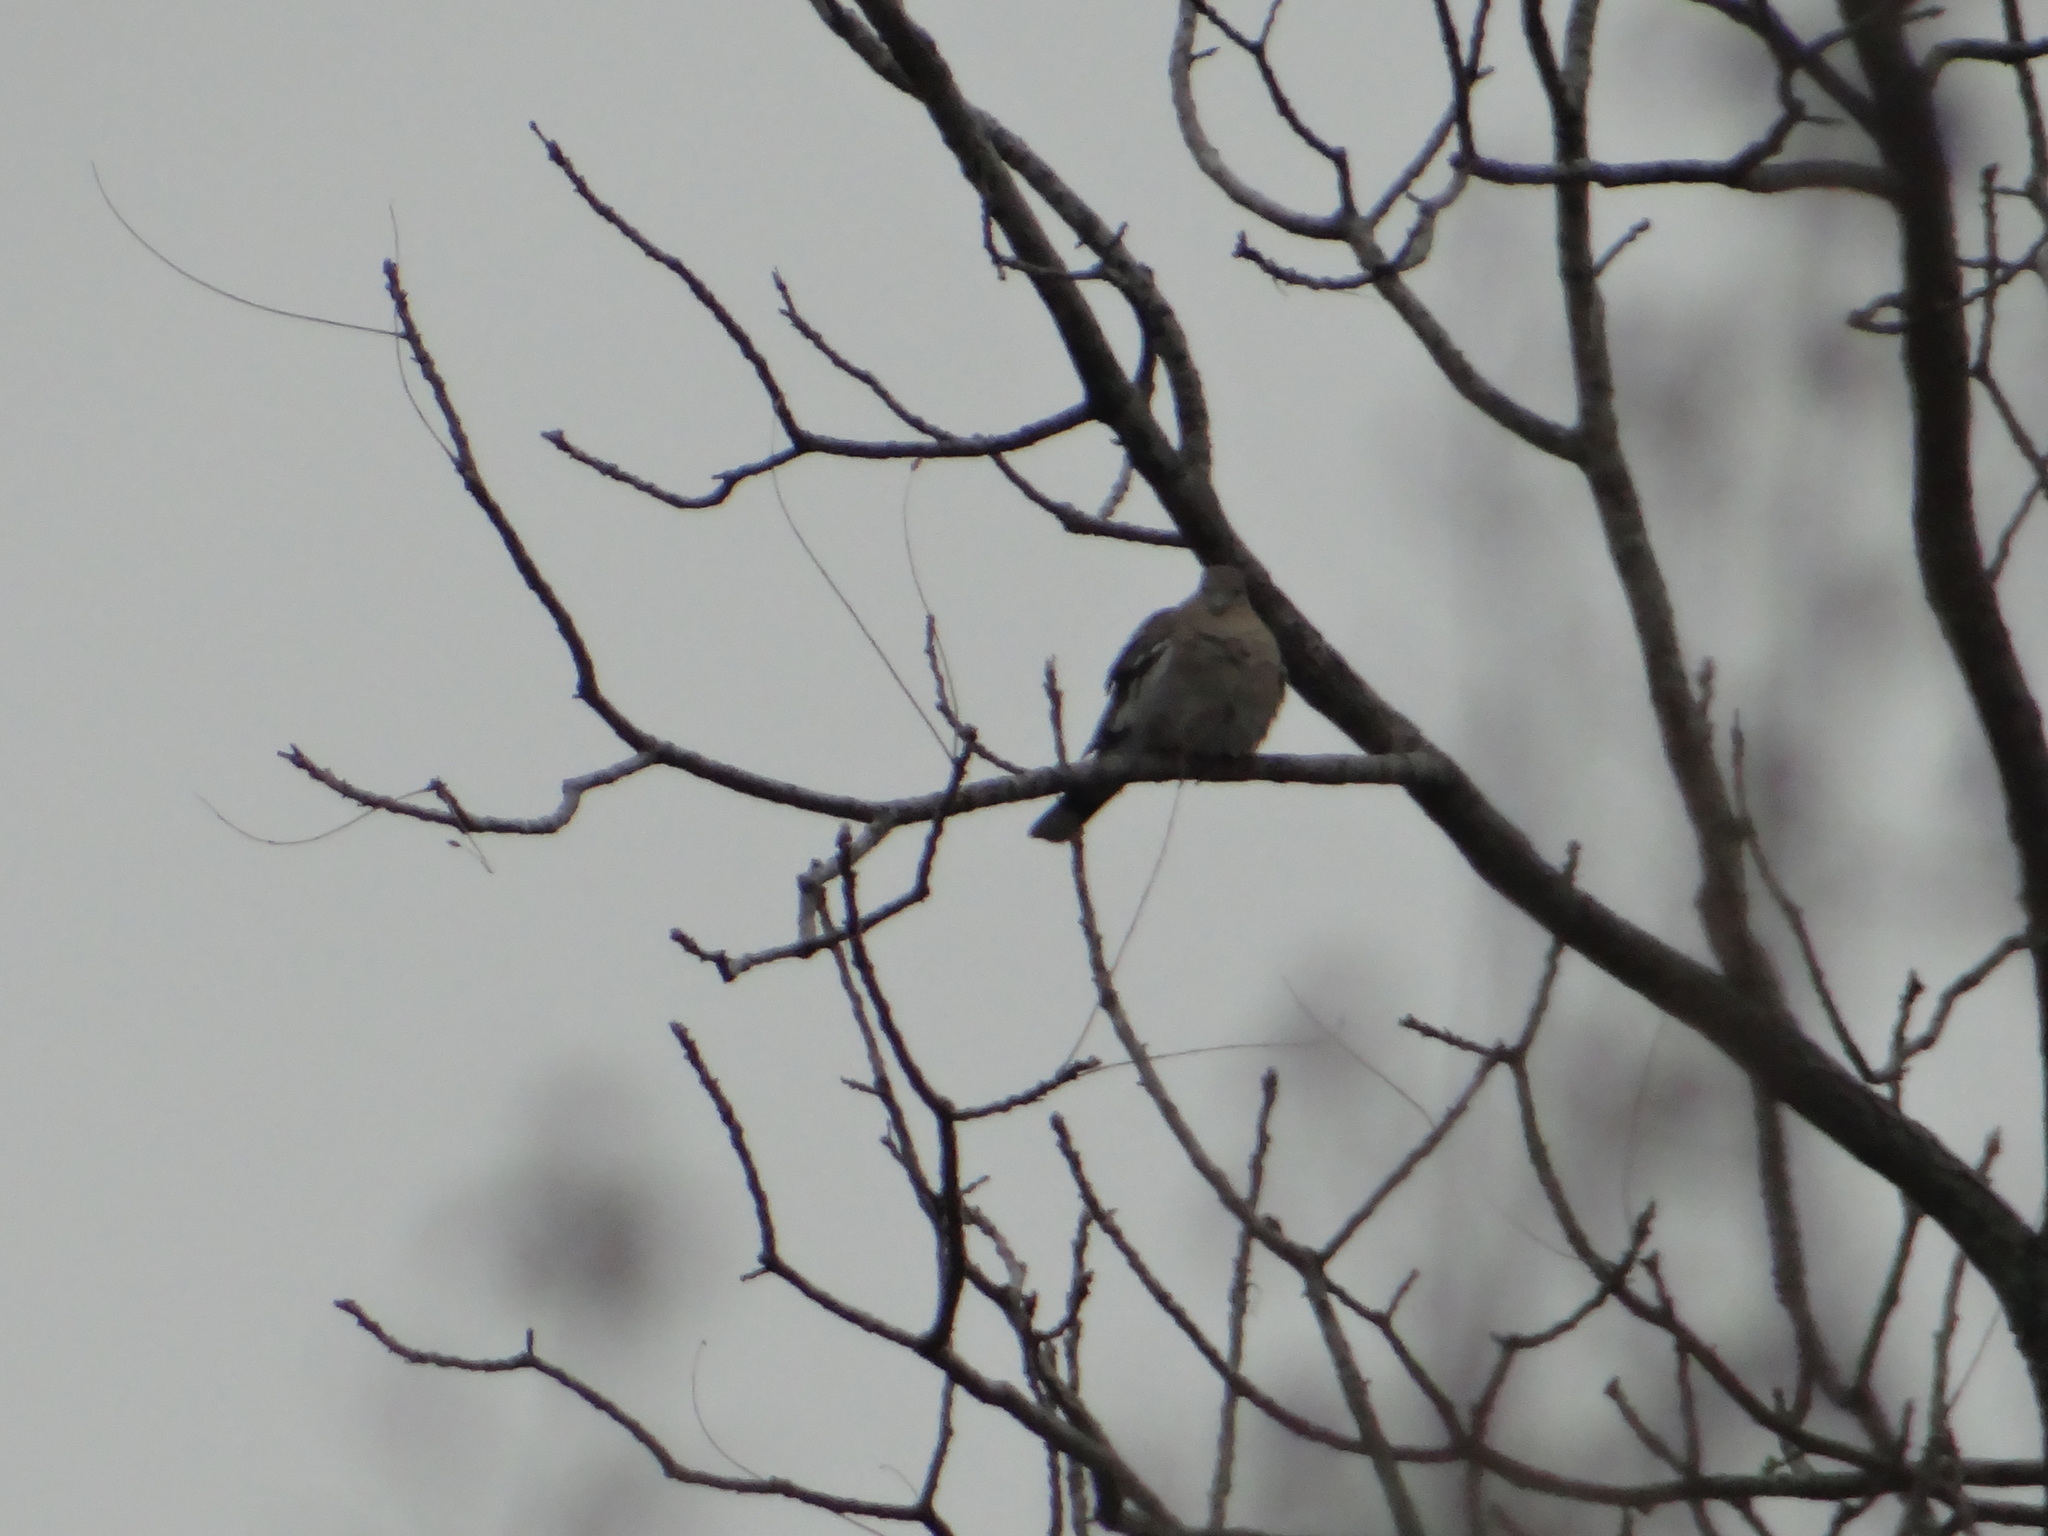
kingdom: Animalia
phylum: Chordata
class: Aves
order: Columbiformes
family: Columbidae
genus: Zenaida
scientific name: Zenaida macroura
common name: Mourning dove
